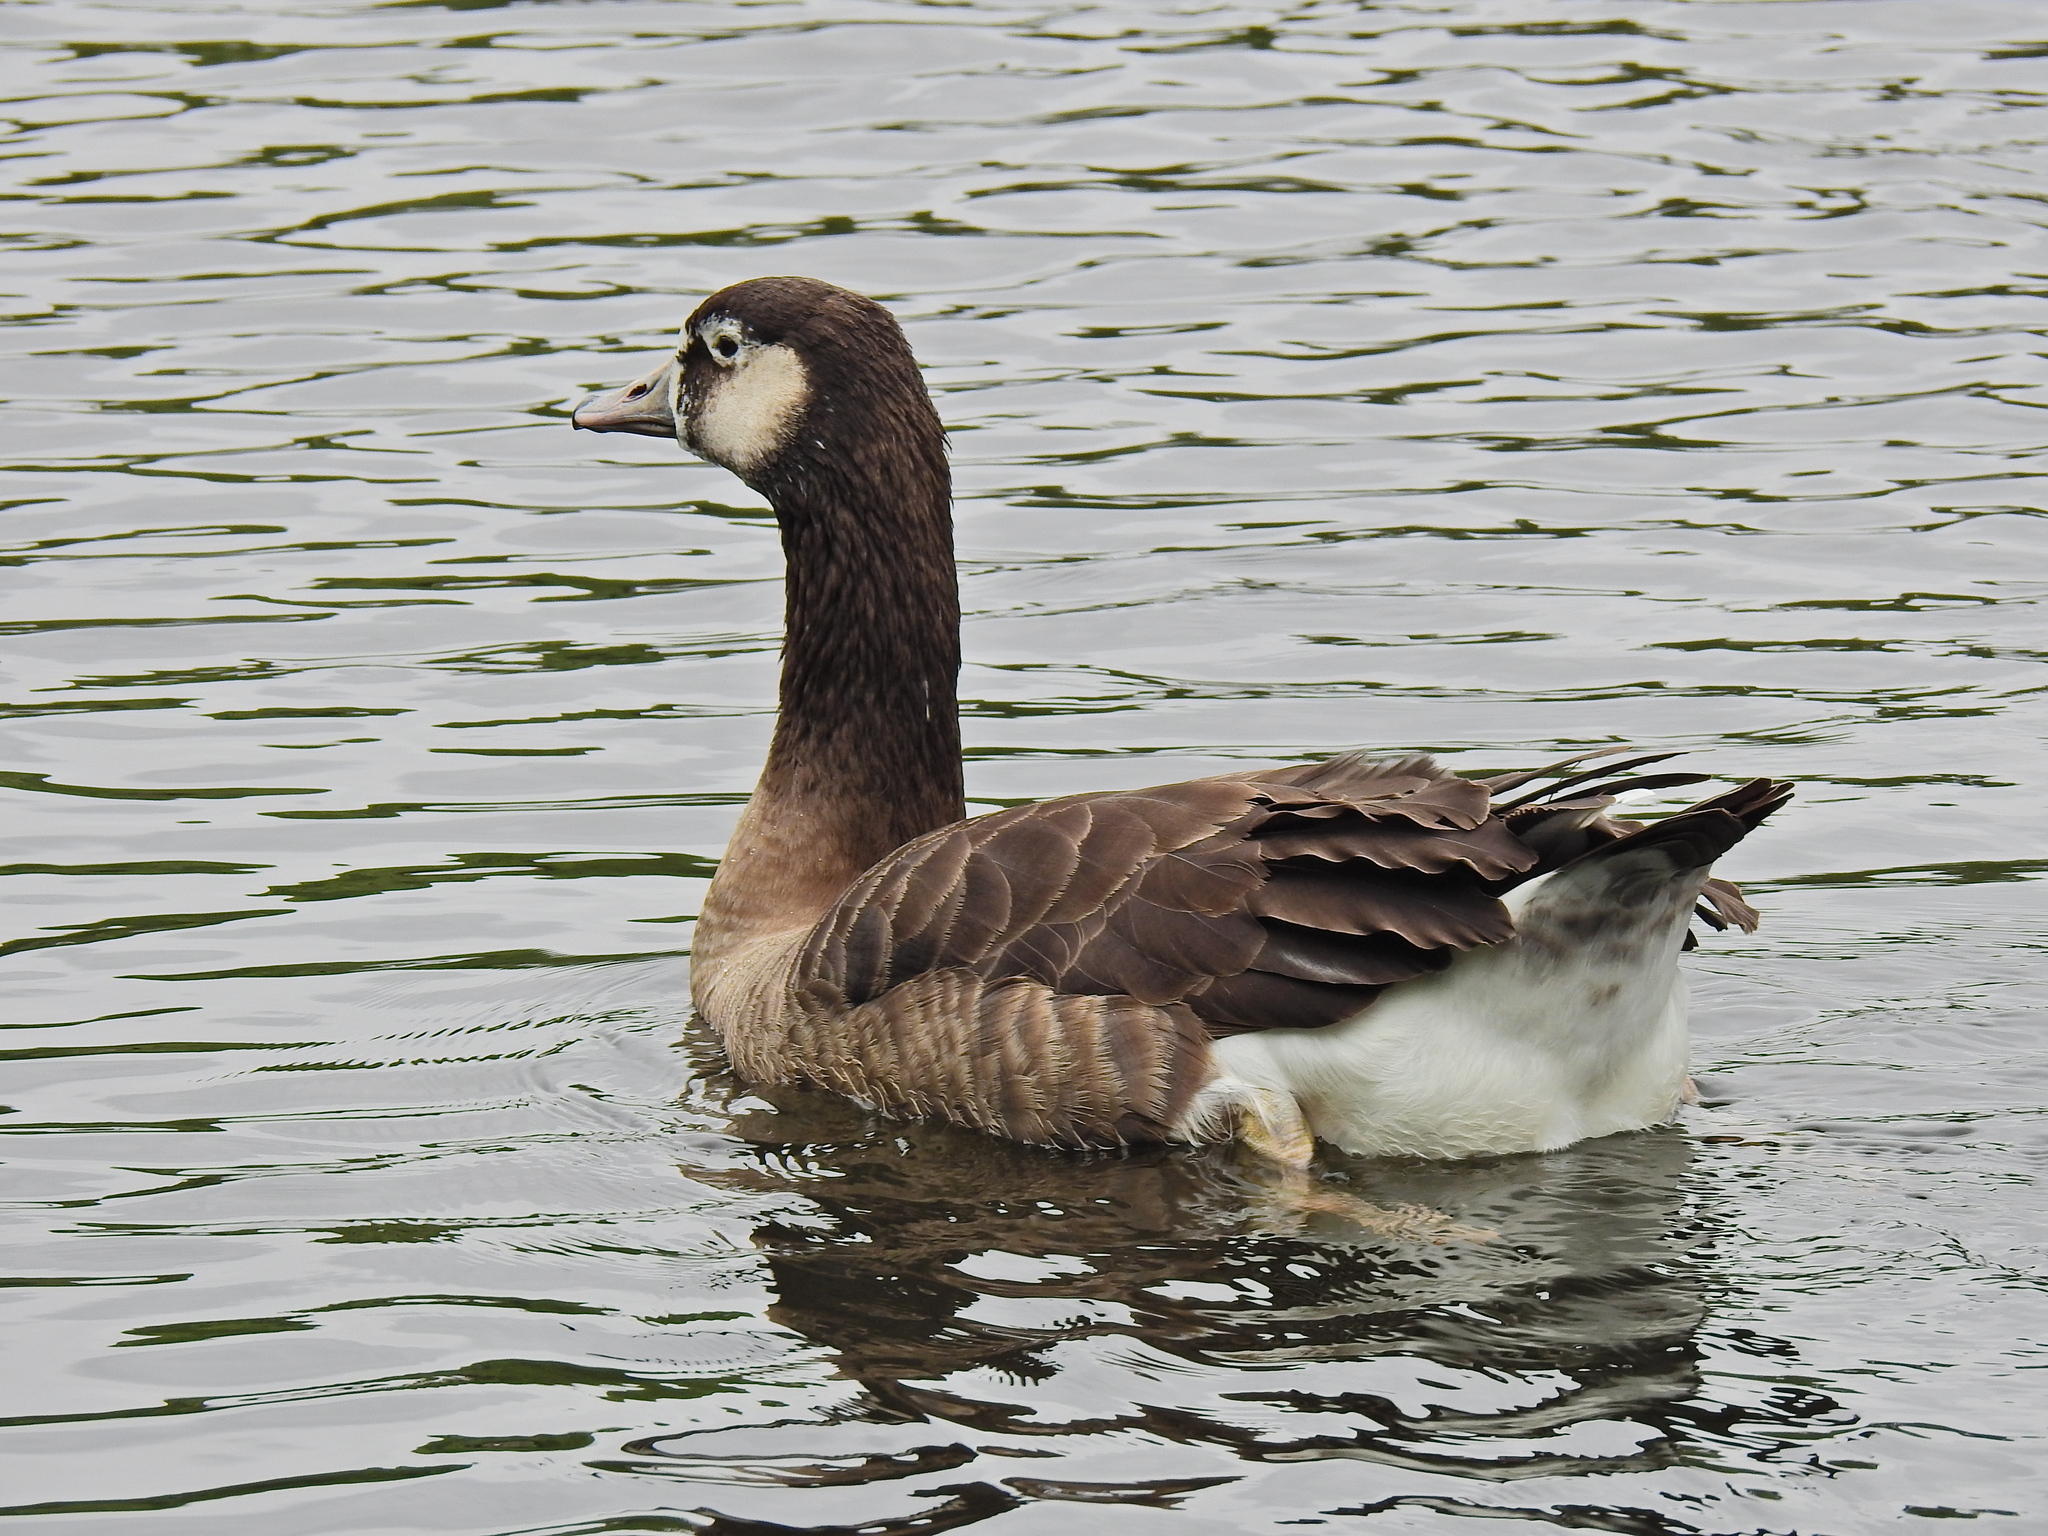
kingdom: Animalia
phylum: Chordata
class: Aves
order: Anseriformes
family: Anatidae
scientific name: Anatidae
